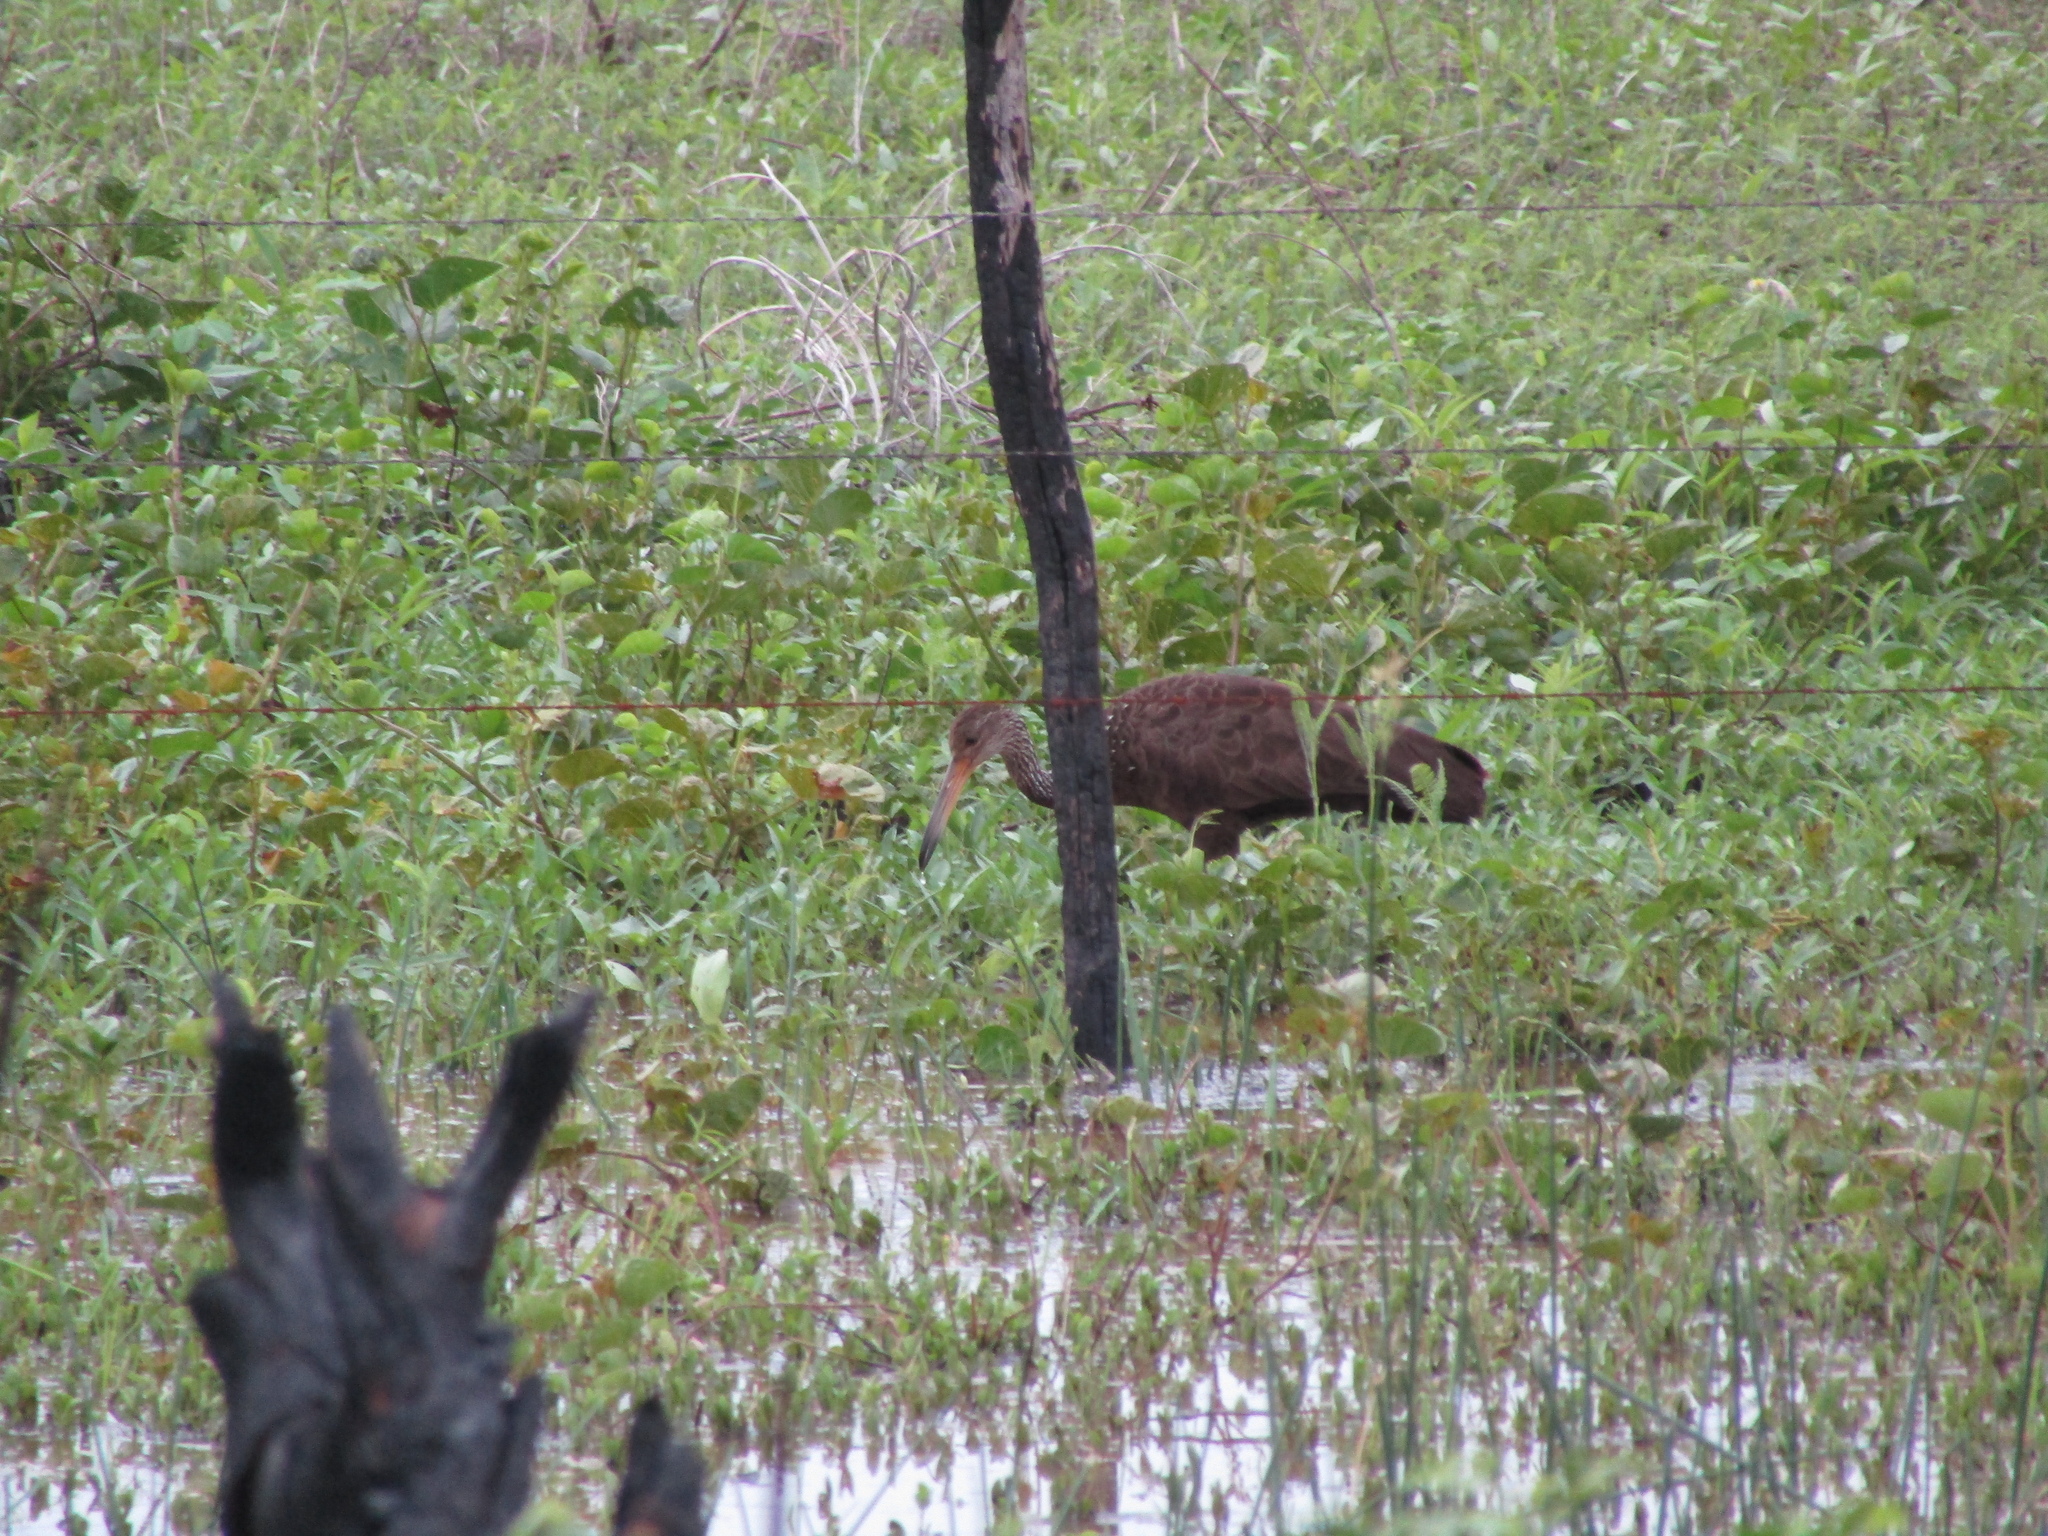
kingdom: Animalia
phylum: Chordata
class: Aves
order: Gruiformes
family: Aramidae
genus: Aramus
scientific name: Aramus guarauna
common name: Limpkin
